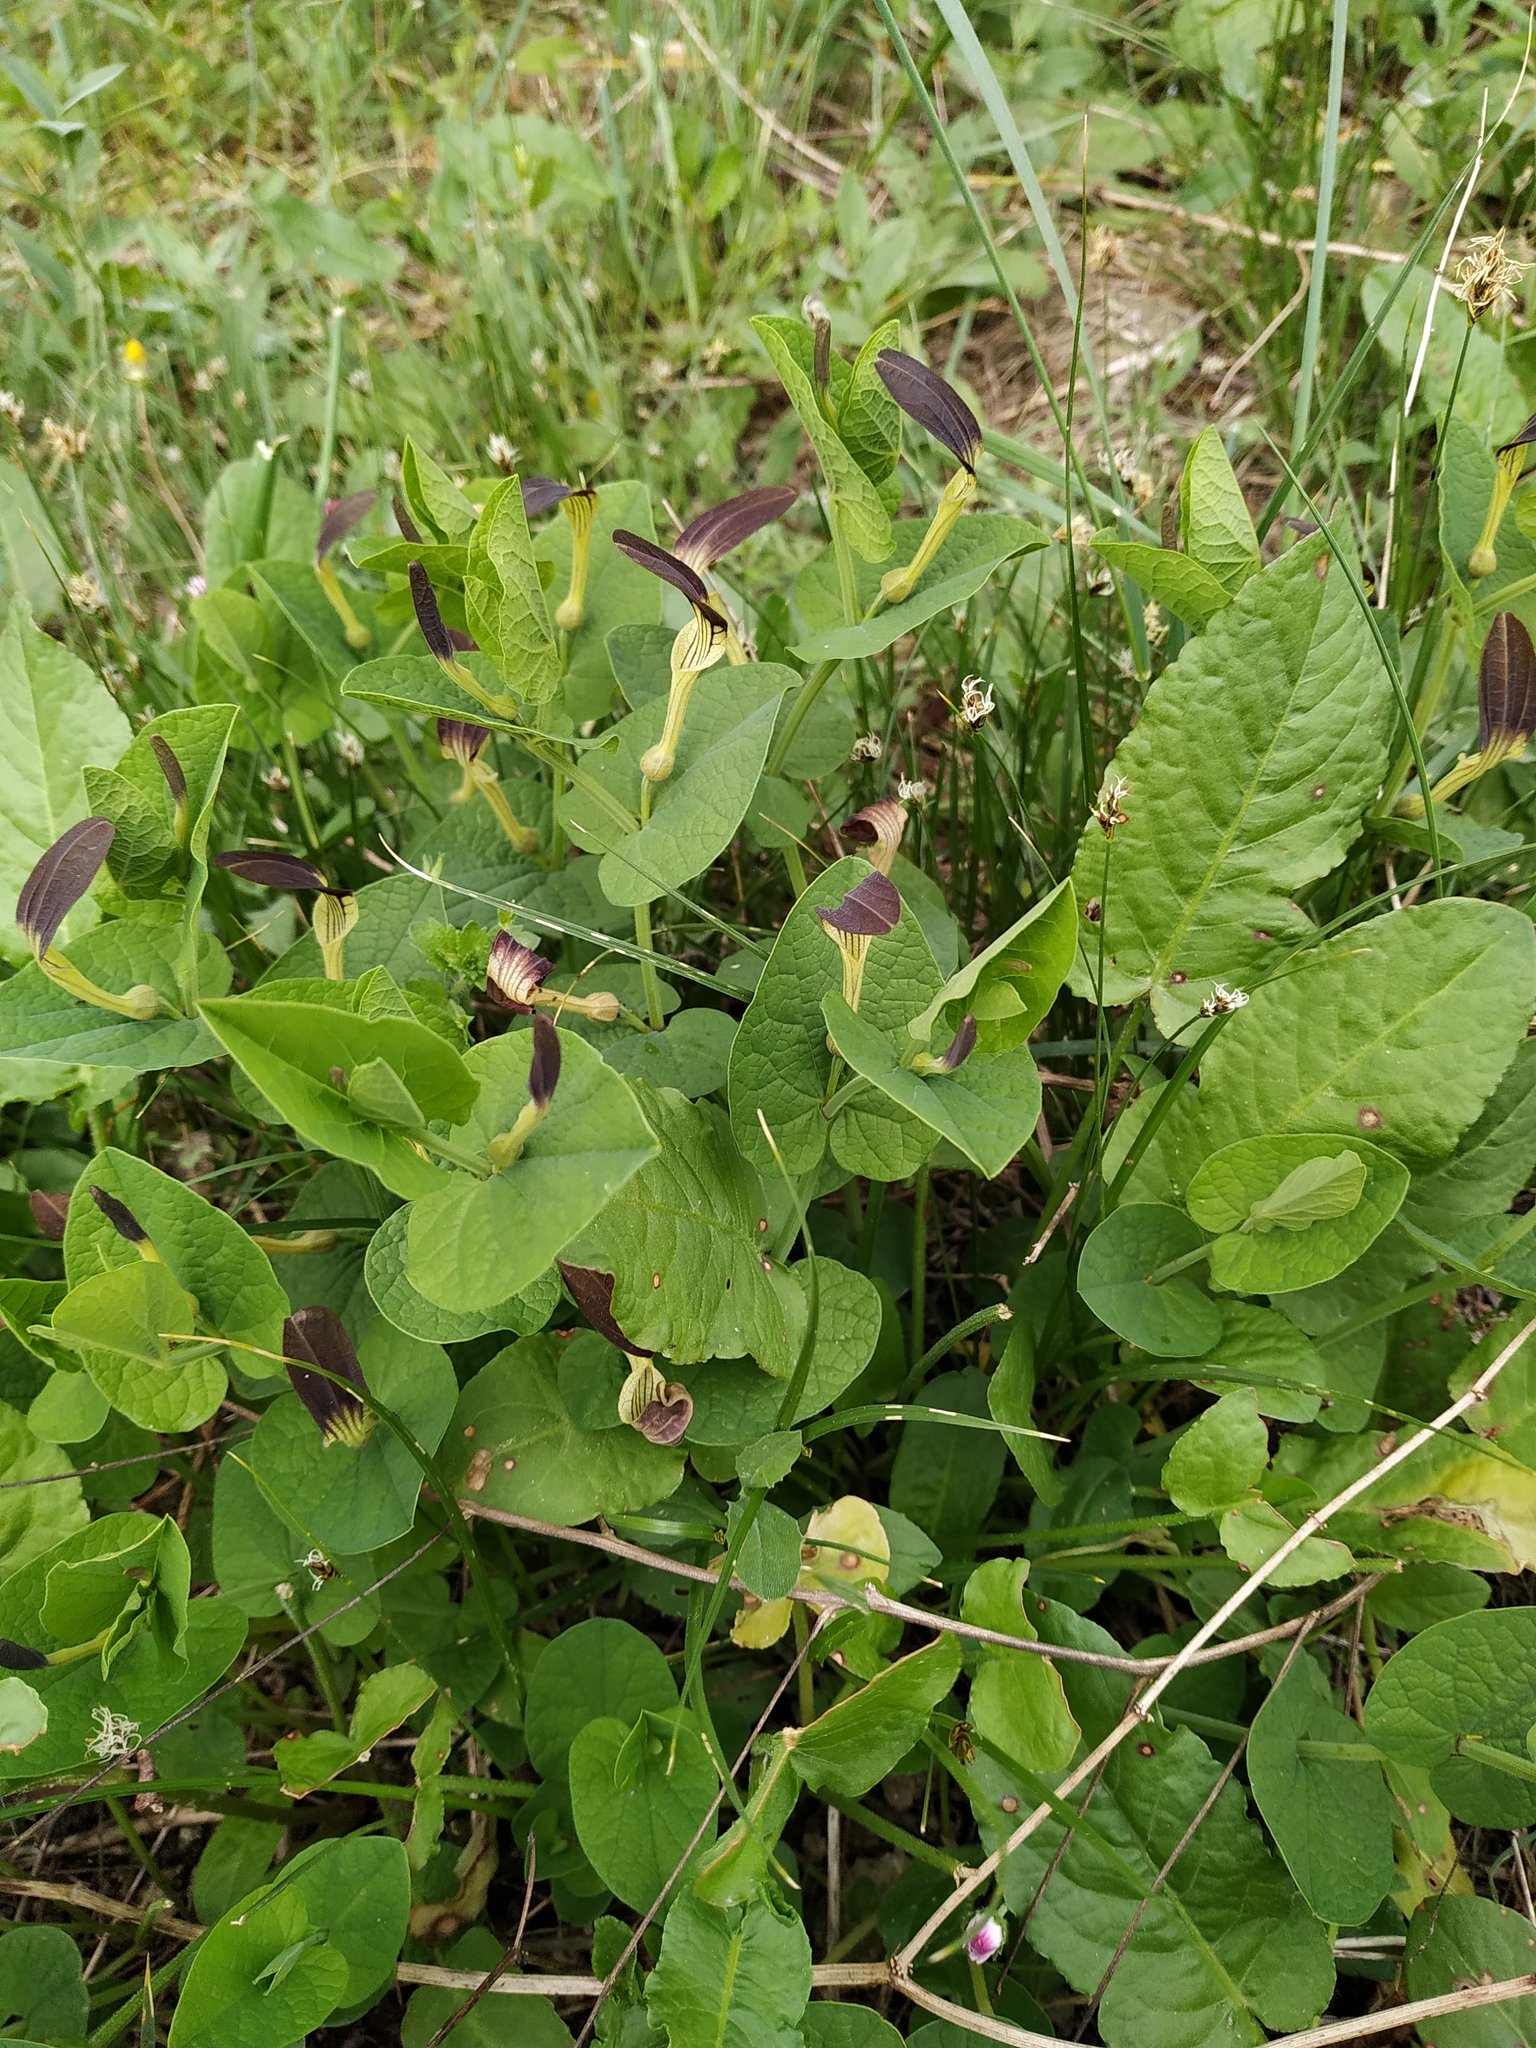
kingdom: Plantae
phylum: Tracheophyta
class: Magnoliopsida
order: Piperales
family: Aristolochiaceae
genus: Aristolochia
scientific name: Aristolochia rotunda
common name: Smearwort
